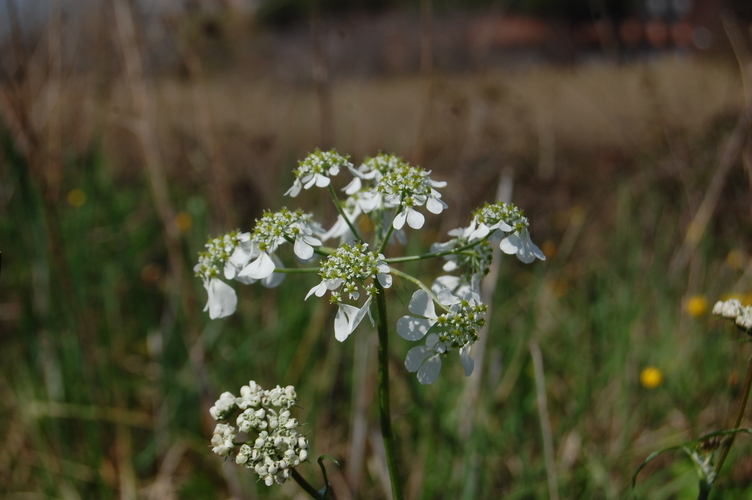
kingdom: Plantae
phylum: Tracheophyta
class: Magnoliopsida
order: Apiales
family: Apiaceae
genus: Tordylium
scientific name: Tordylium apulum
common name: Mediterranean hartwort
